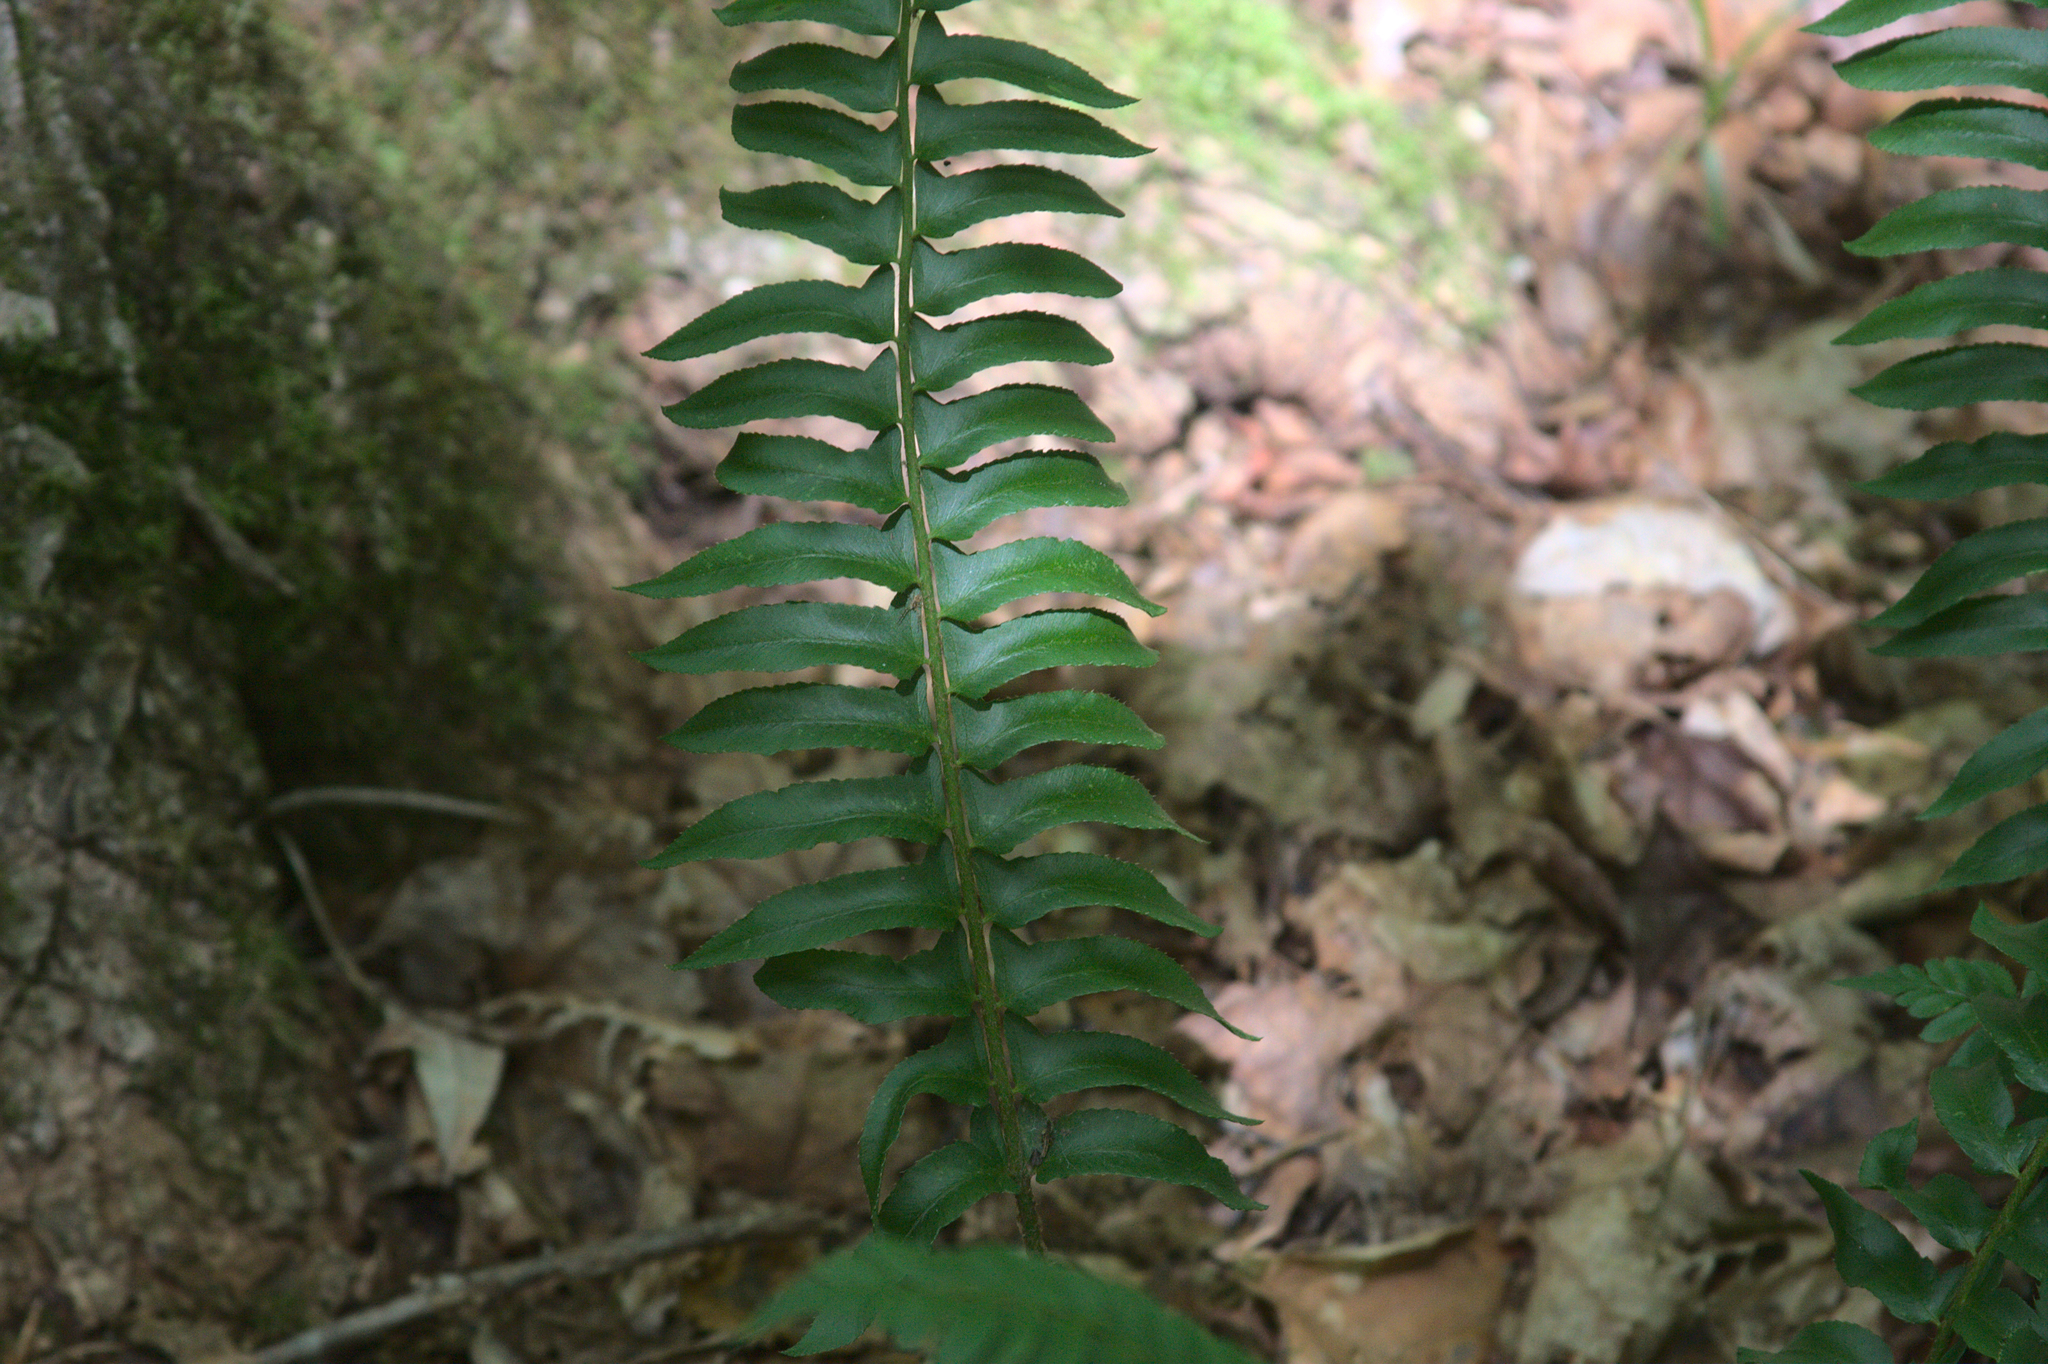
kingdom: Plantae
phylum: Tracheophyta
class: Polypodiopsida
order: Polypodiales
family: Dryopteridaceae
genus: Polystichum
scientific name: Polystichum acrostichoides
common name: Christmas fern
